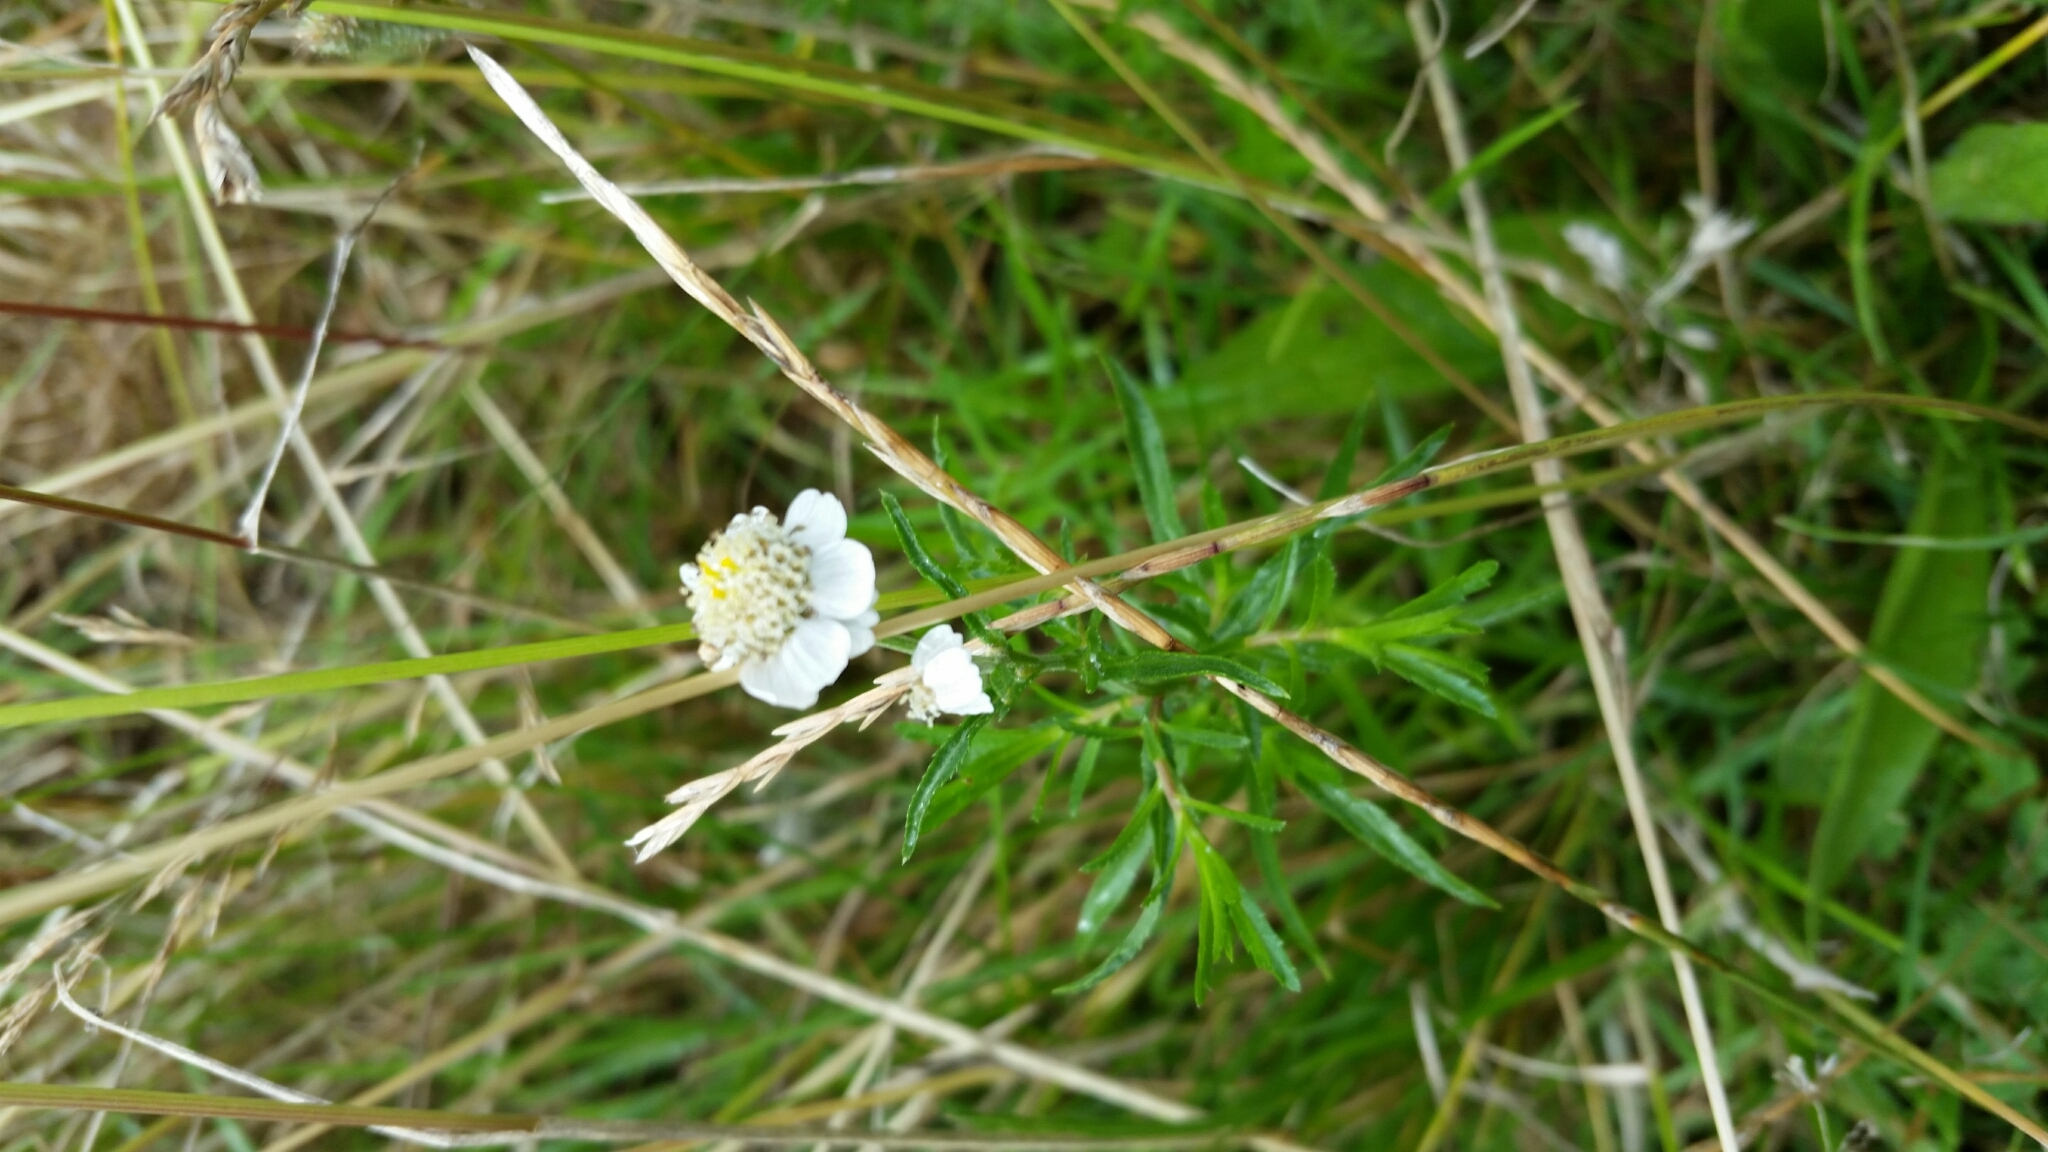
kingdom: Plantae
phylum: Tracheophyta
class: Magnoliopsida
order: Asterales
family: Asteraceae
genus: Achillea
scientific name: Achillea ptarmica
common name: Sneezeweed
